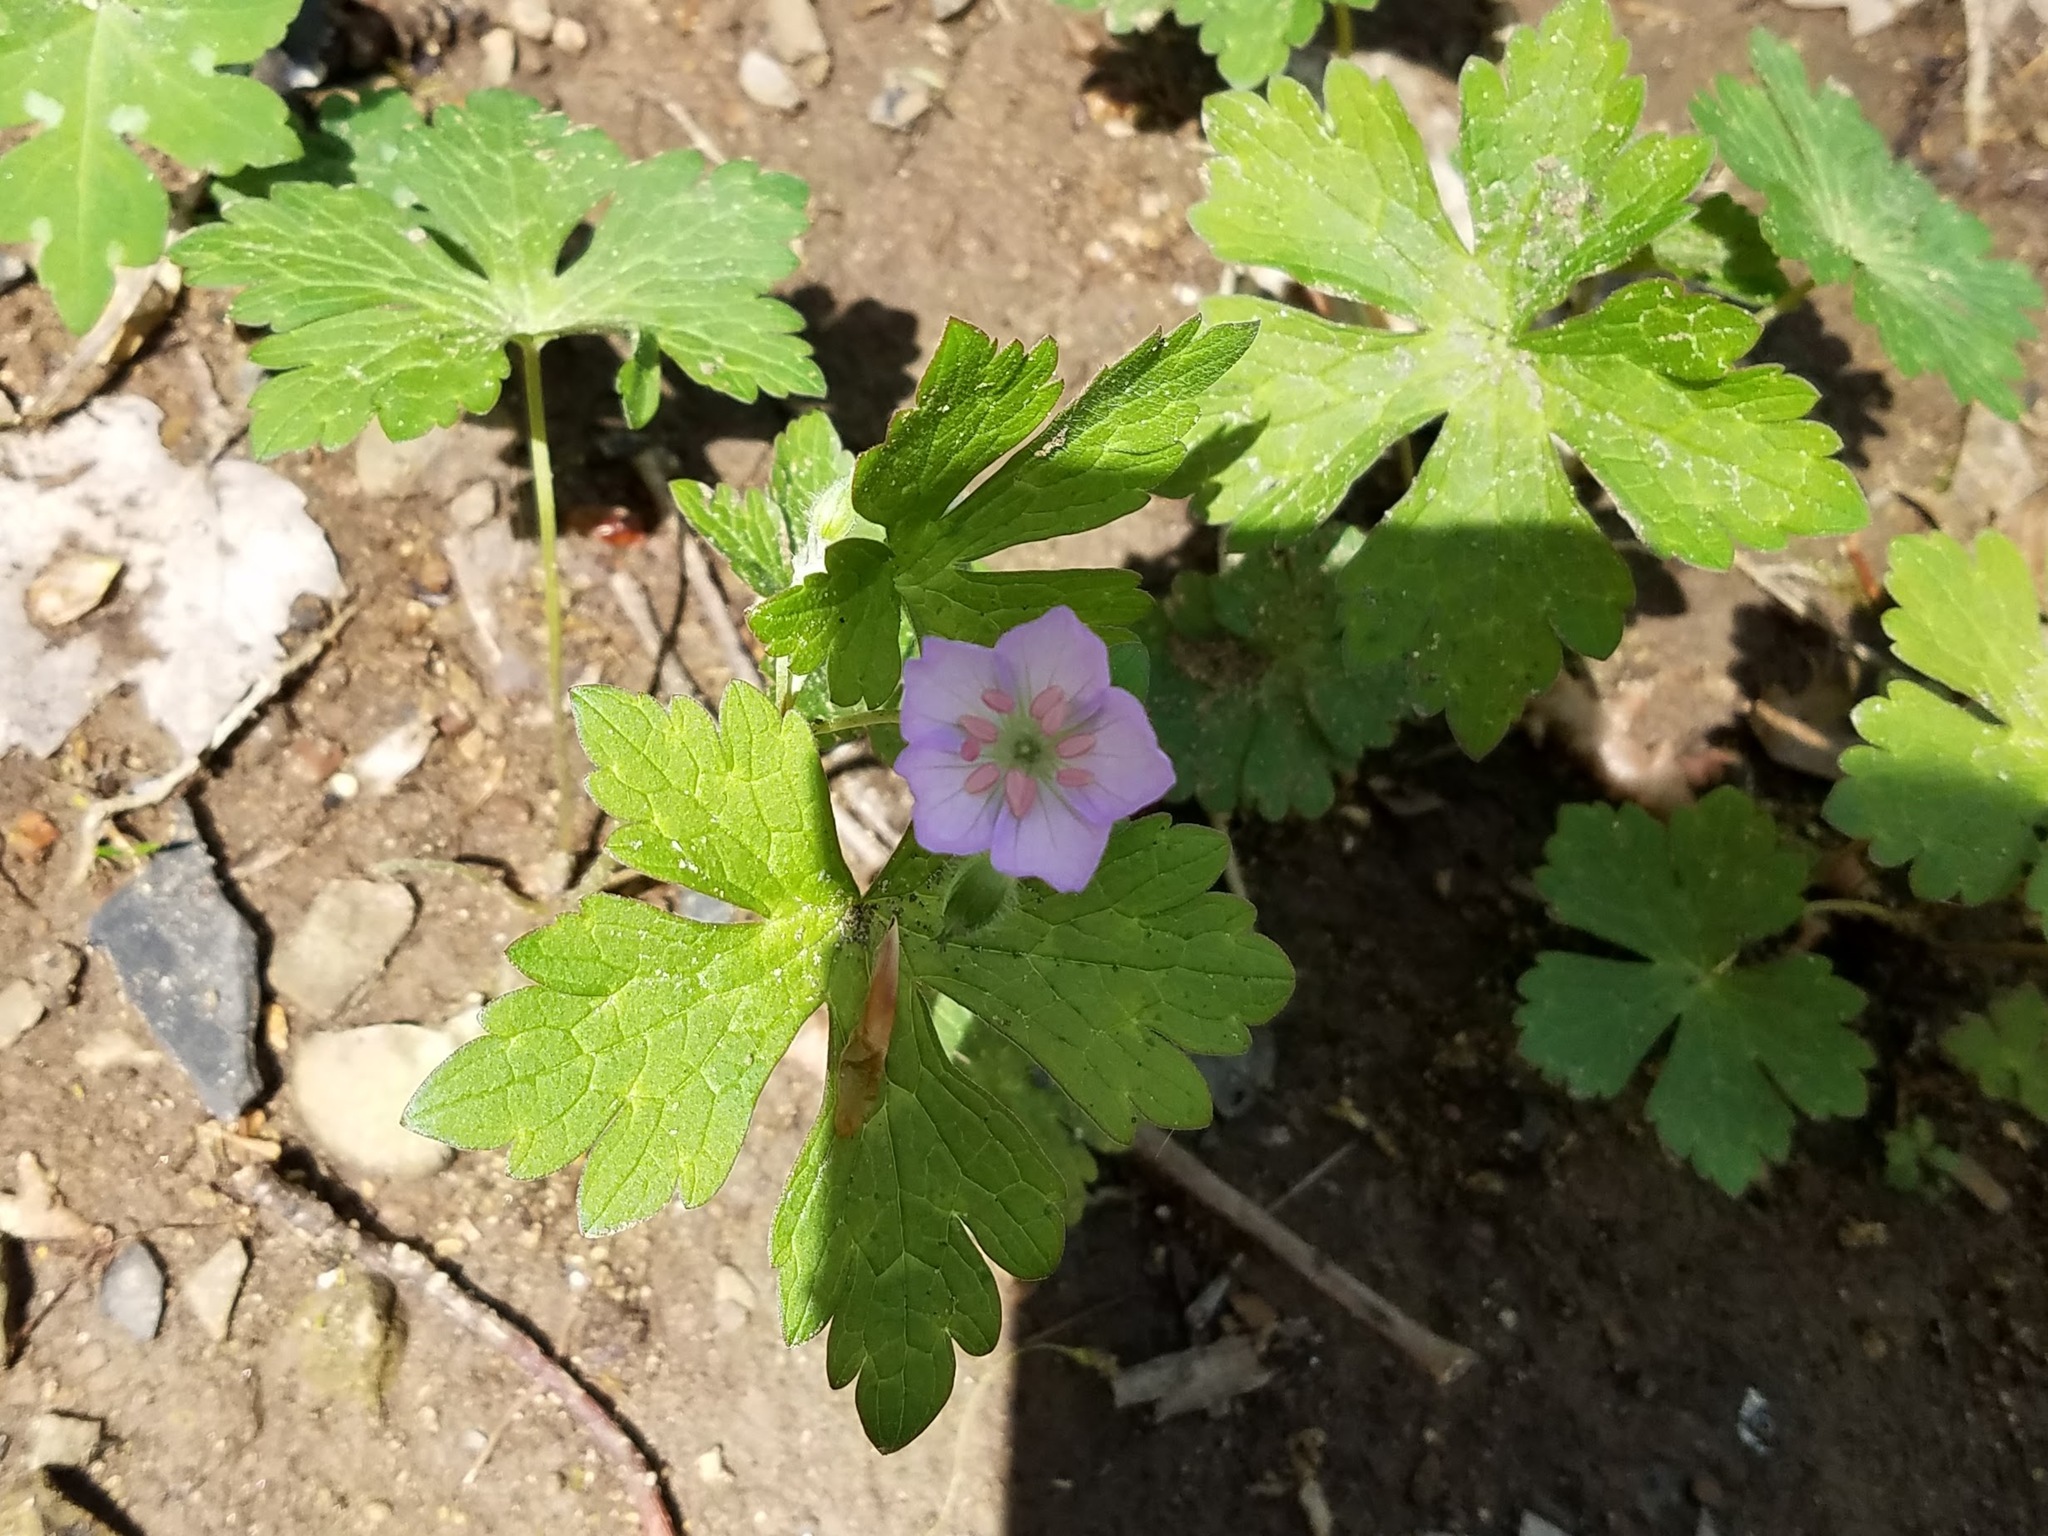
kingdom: Plantae
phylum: Tracheophyta
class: Magnoliopsida
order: Geraniales
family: Geraniaceae
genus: Geranium
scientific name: Geranium maculatum
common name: Spotted geranium
